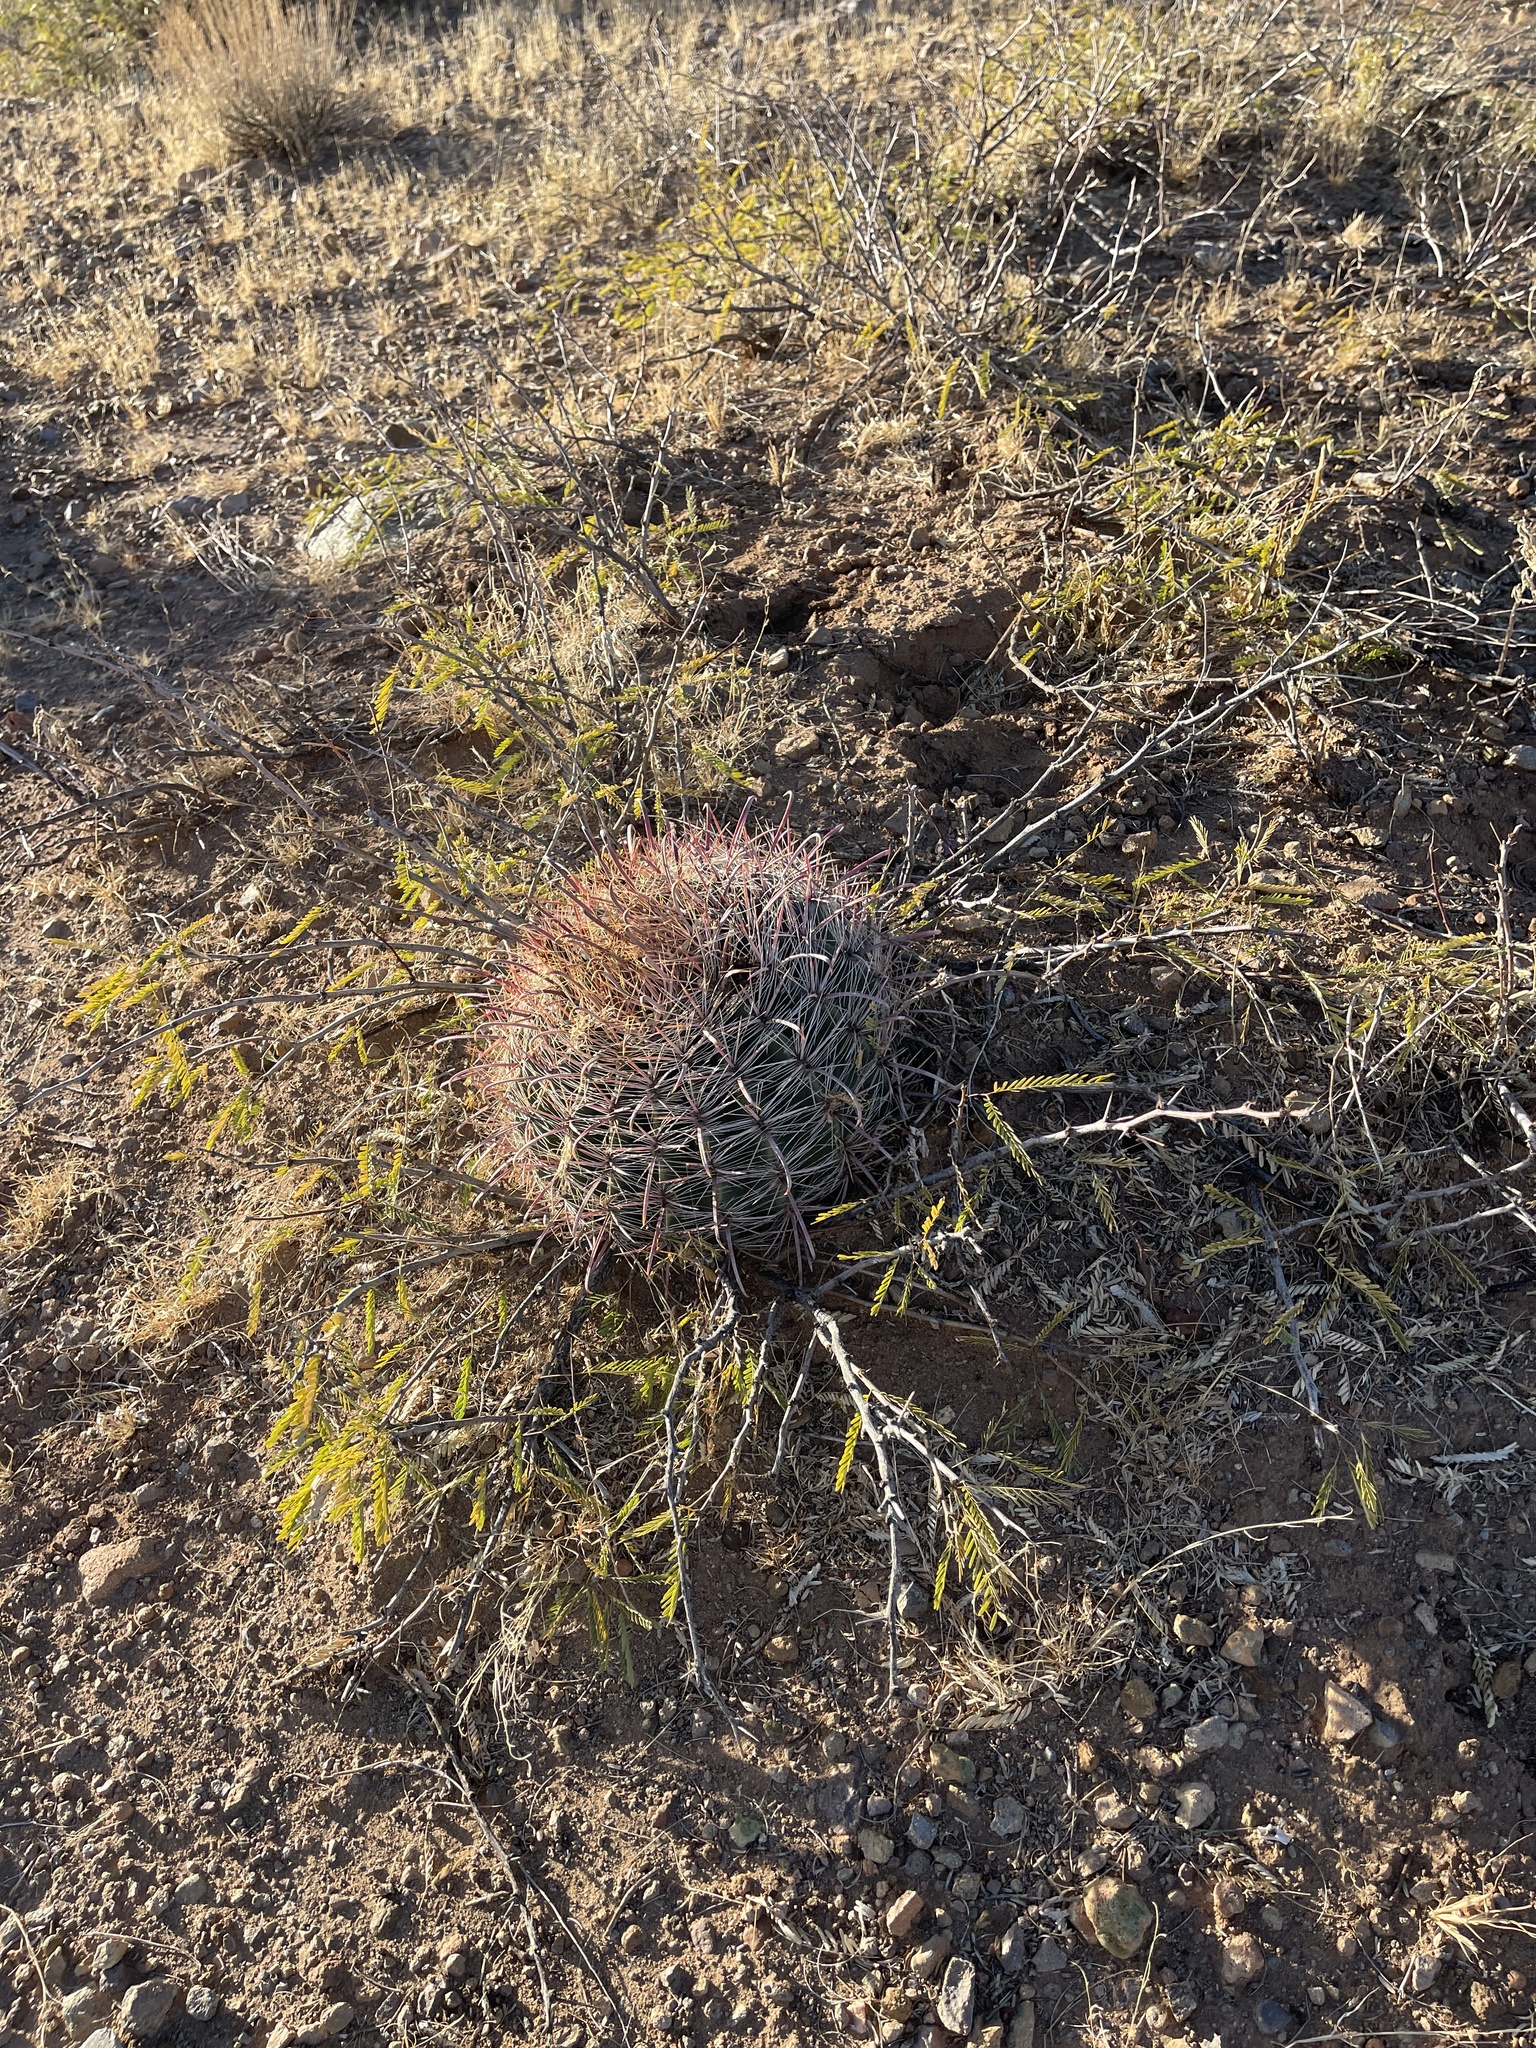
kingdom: Plantae
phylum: Tracheophyta
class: Magnoliopsida
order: Caryophyllales
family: Cactaceae
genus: Ferocactus
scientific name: Ferocactus wislizeni
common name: Candy barrel cactus
